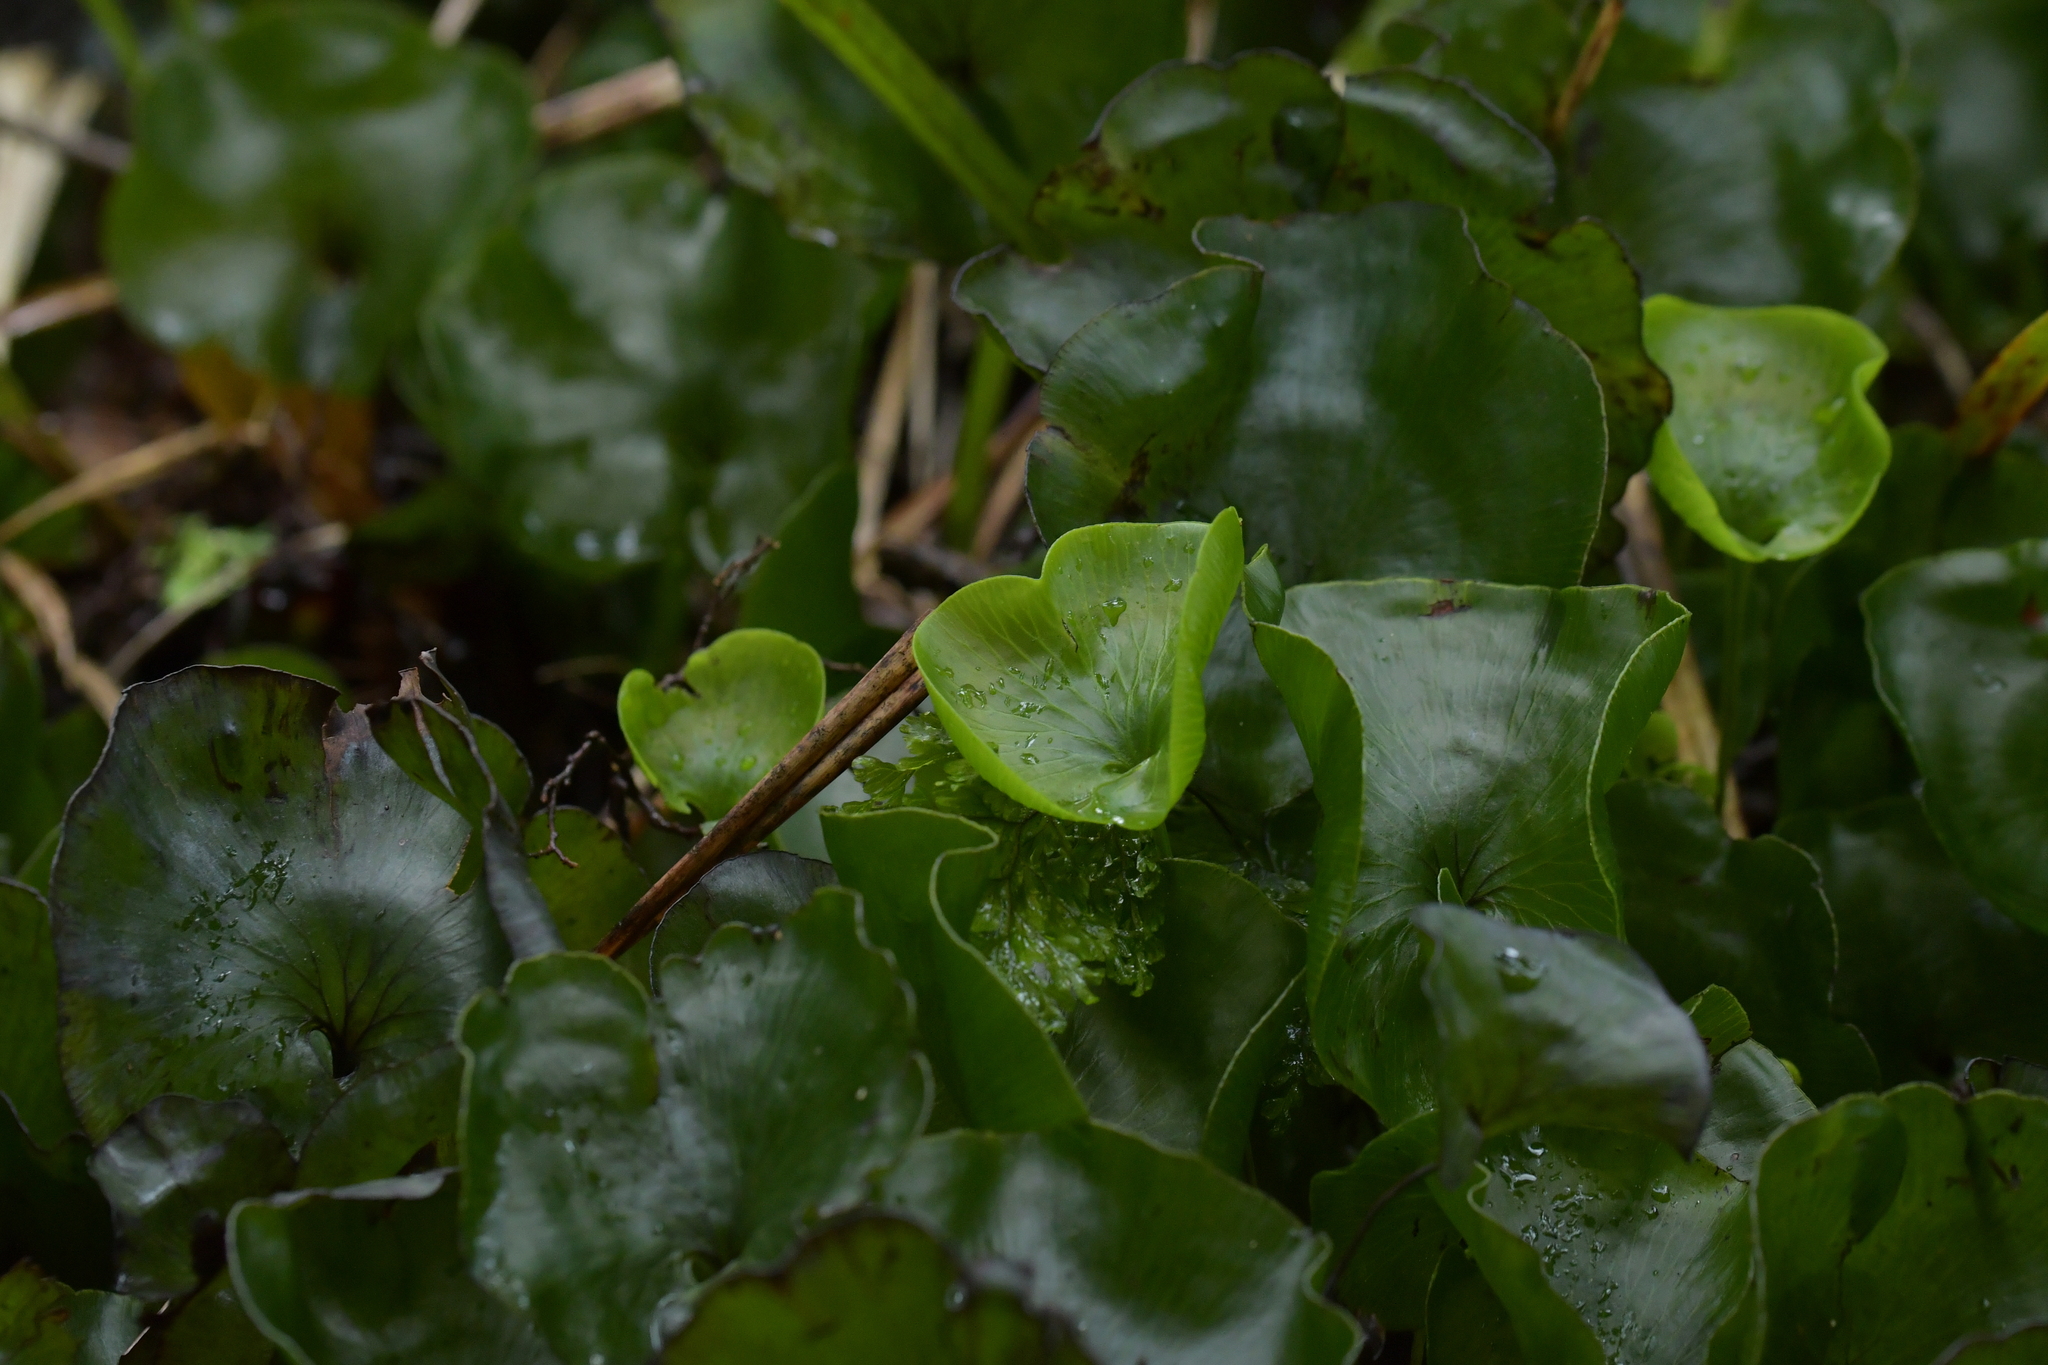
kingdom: Plantae
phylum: Tracheophyta
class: Polypodiopsida
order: Hymenophyllales
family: Hymenophyllaceae
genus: Hymenophyllum
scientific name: Hymenophyllum nephrophyllum
